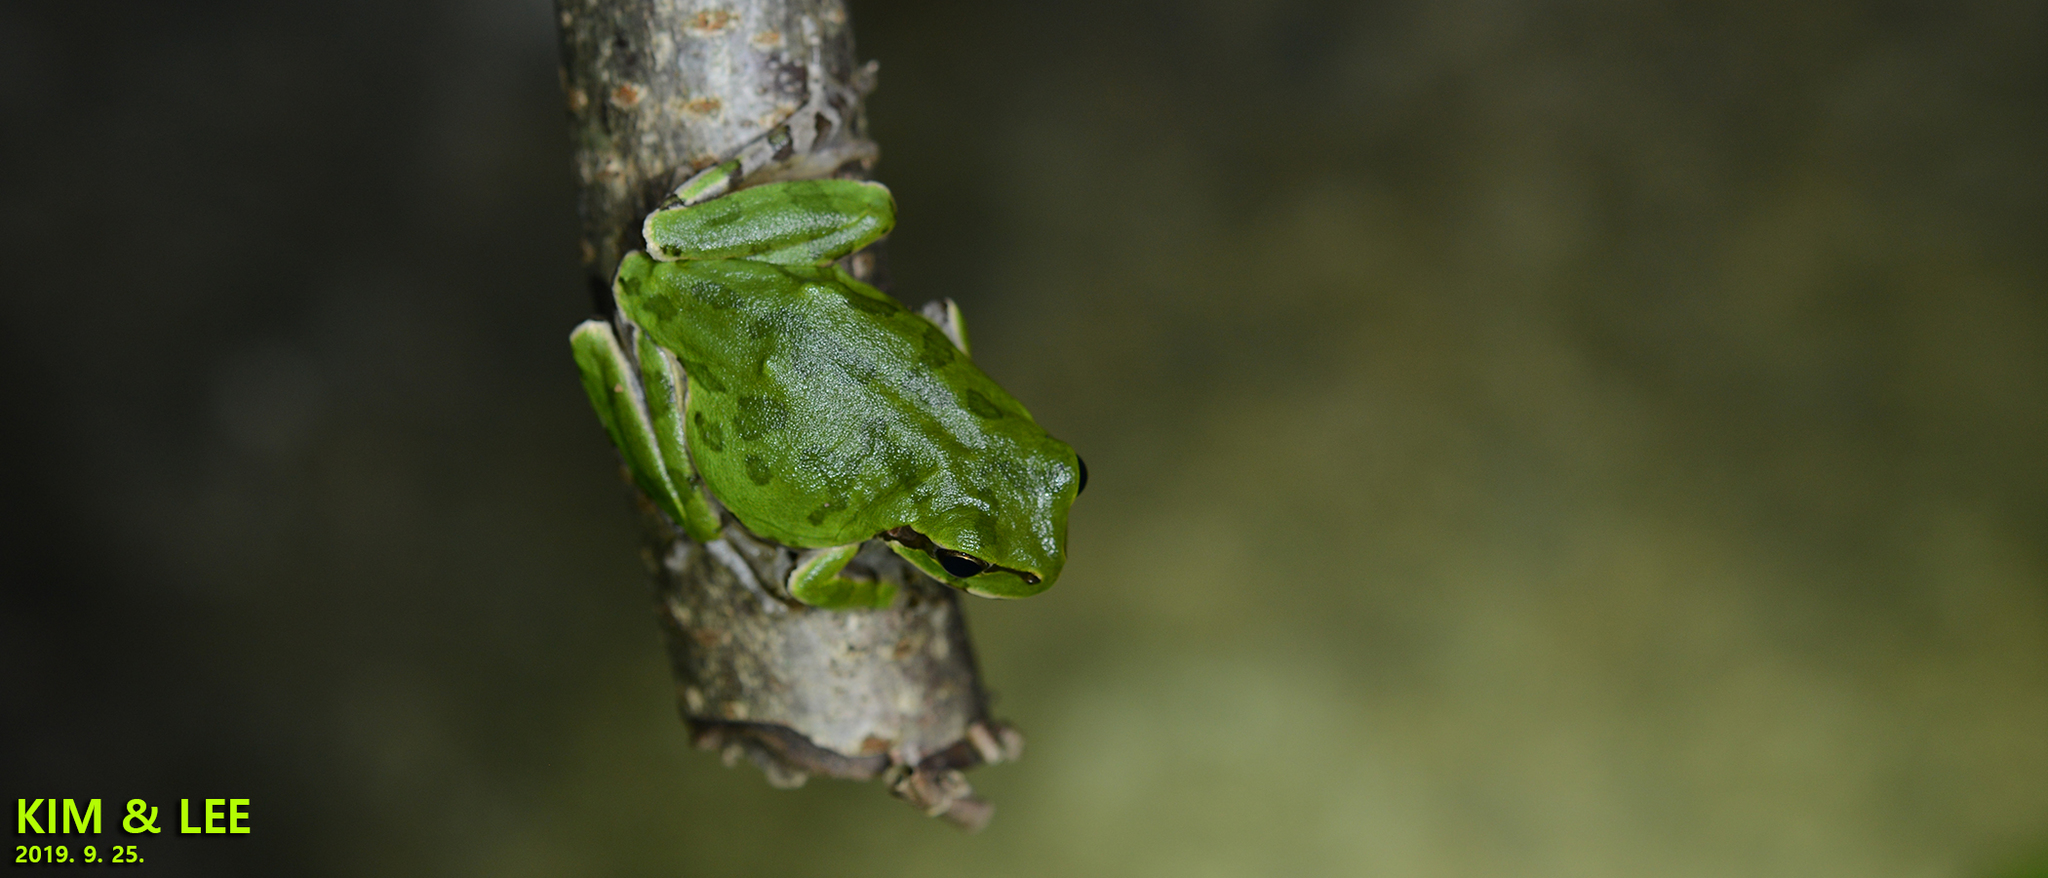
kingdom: Animalia
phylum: Chordata
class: Amphibia
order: Anura
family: Hylidae
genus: Dryophytes
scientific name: Dryophytes japonicus
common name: Japanese treefrog
